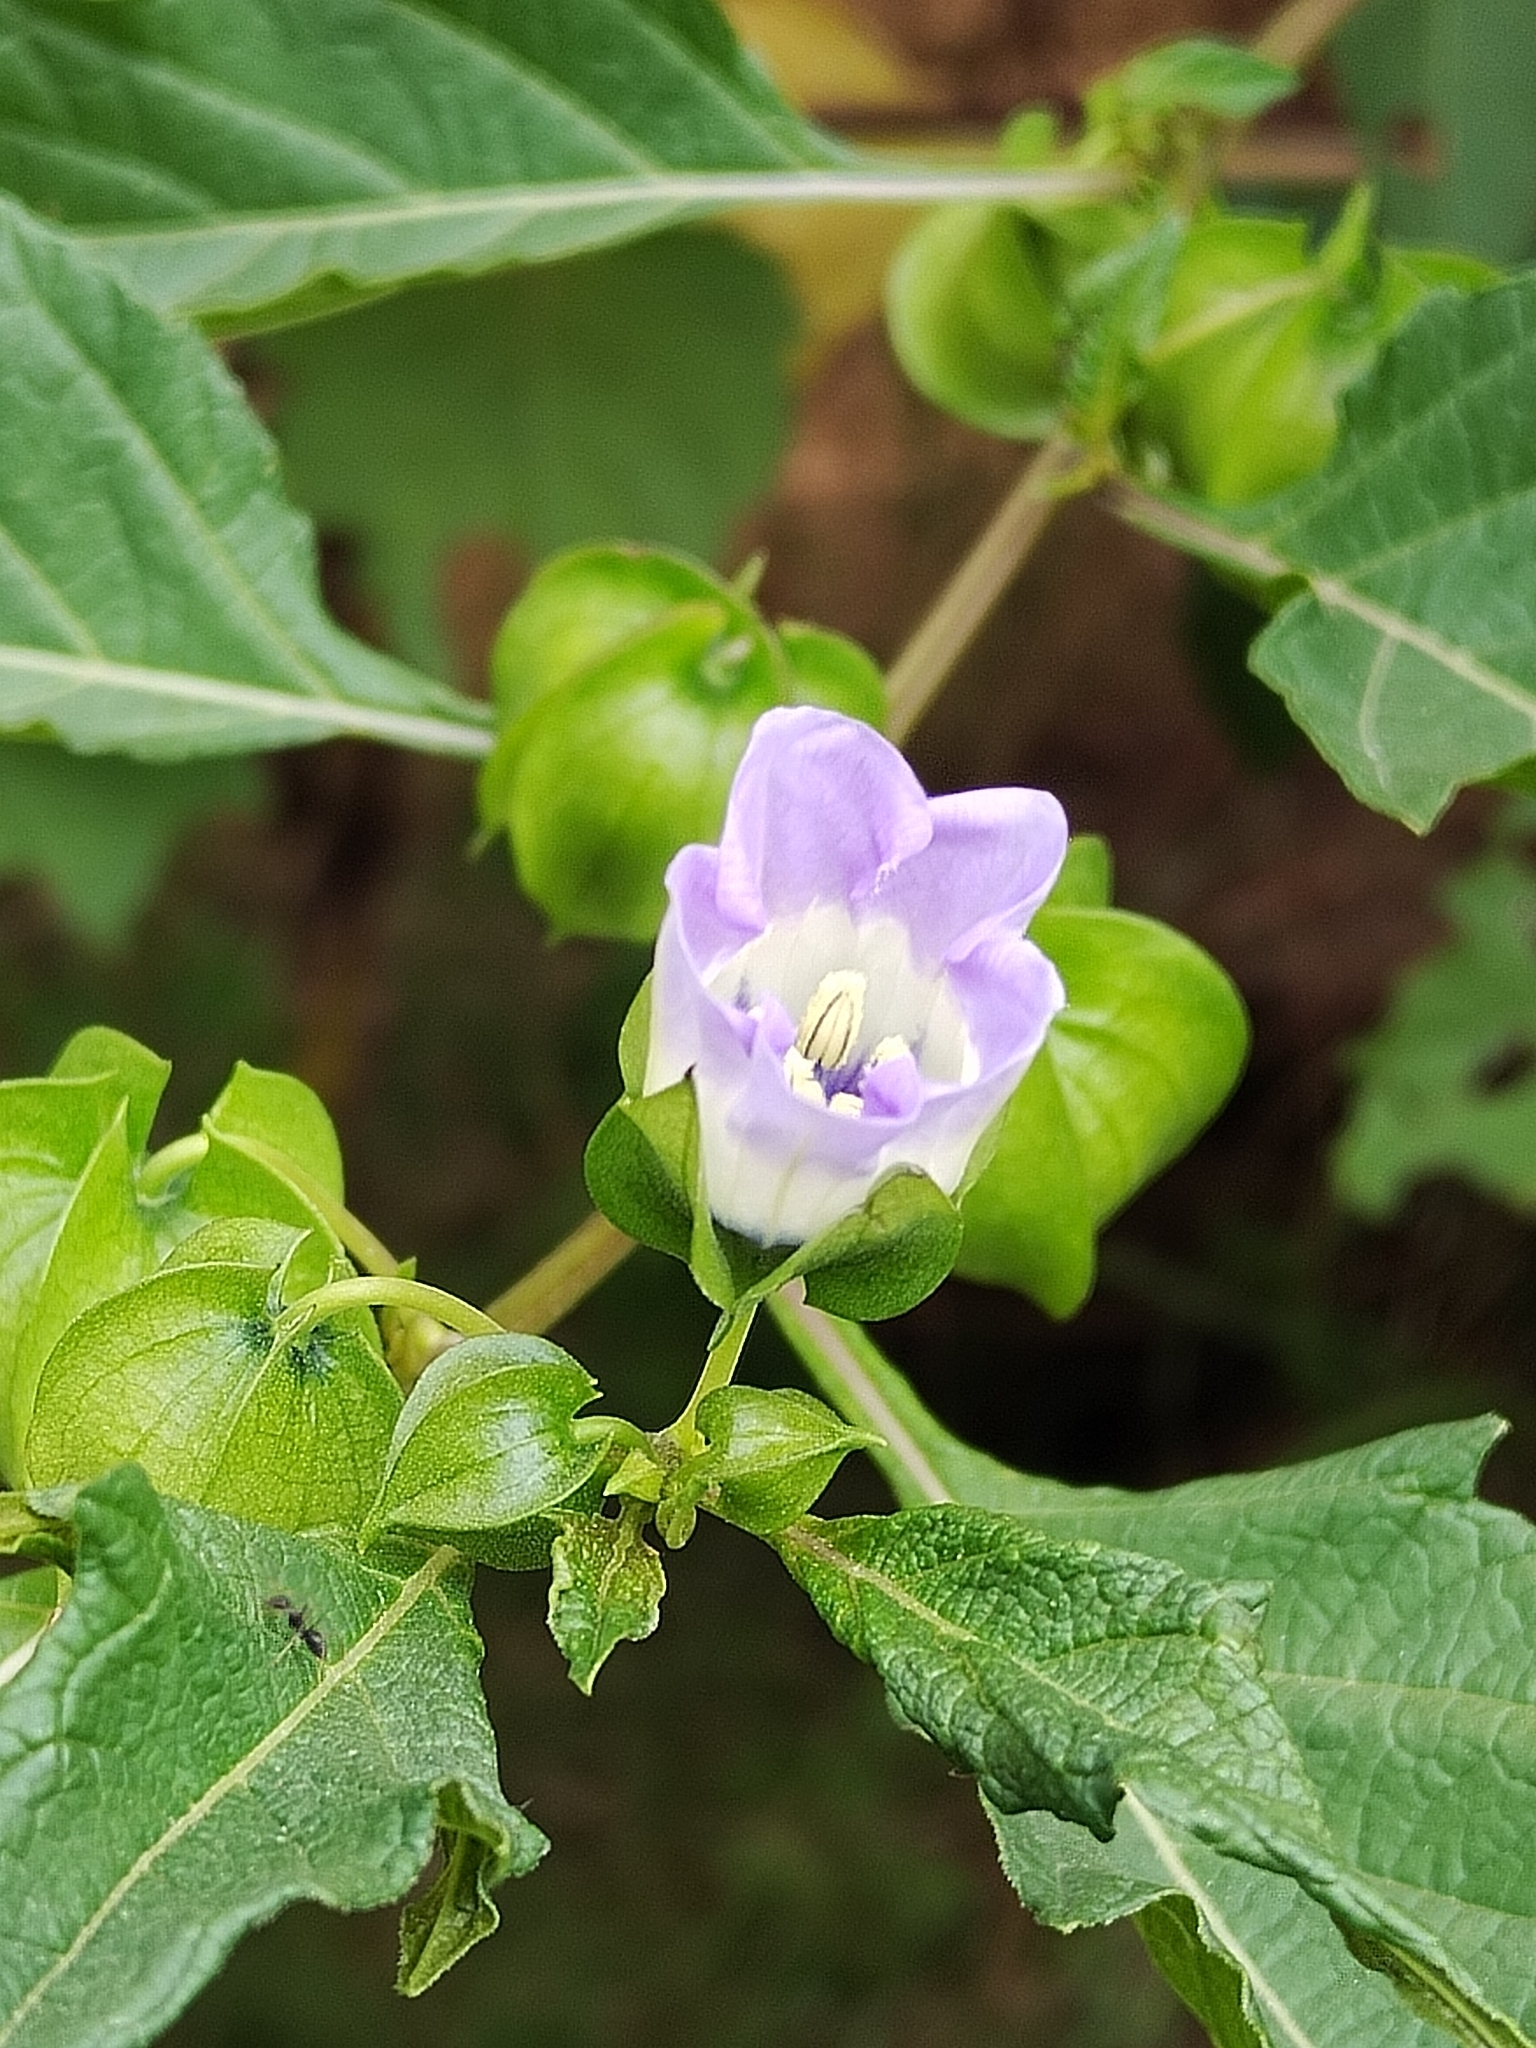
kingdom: Plantae
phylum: Tracheophyta
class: Magnoliopsida
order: Solanales
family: Solanaceae
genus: Nicandra
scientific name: Nicandra physalodes
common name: Apple-of-peru
